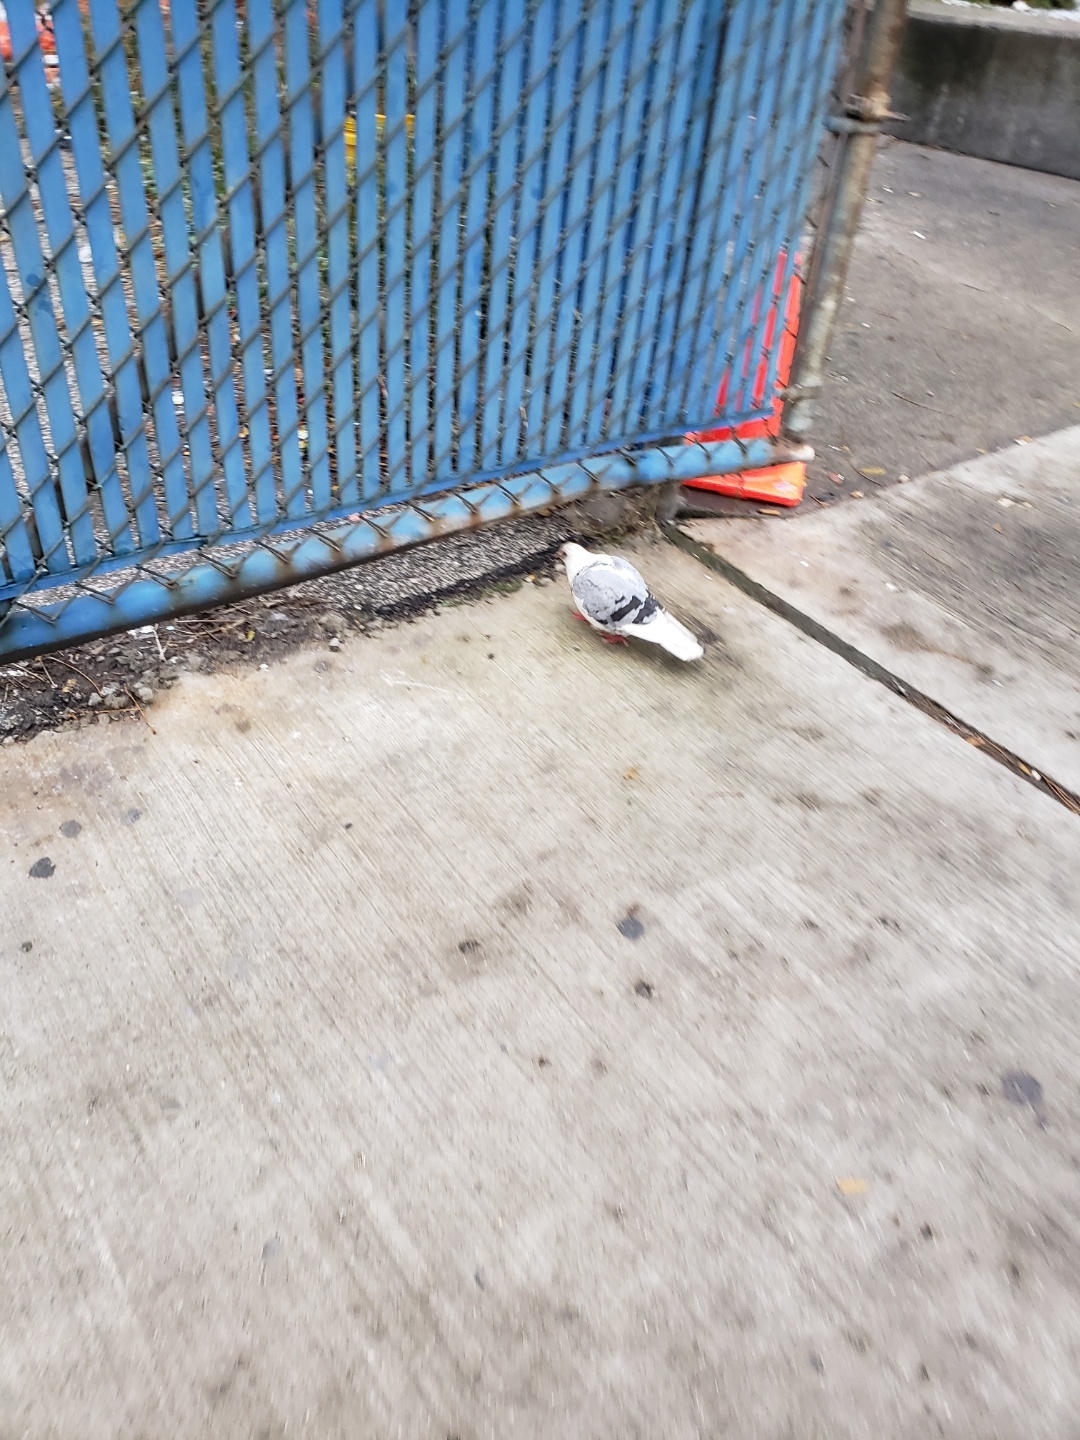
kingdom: Animalia
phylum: Chordata
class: Aves
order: Columbiformes
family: Columbidae
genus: Columba
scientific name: Columba livia
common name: Rock pigeon
